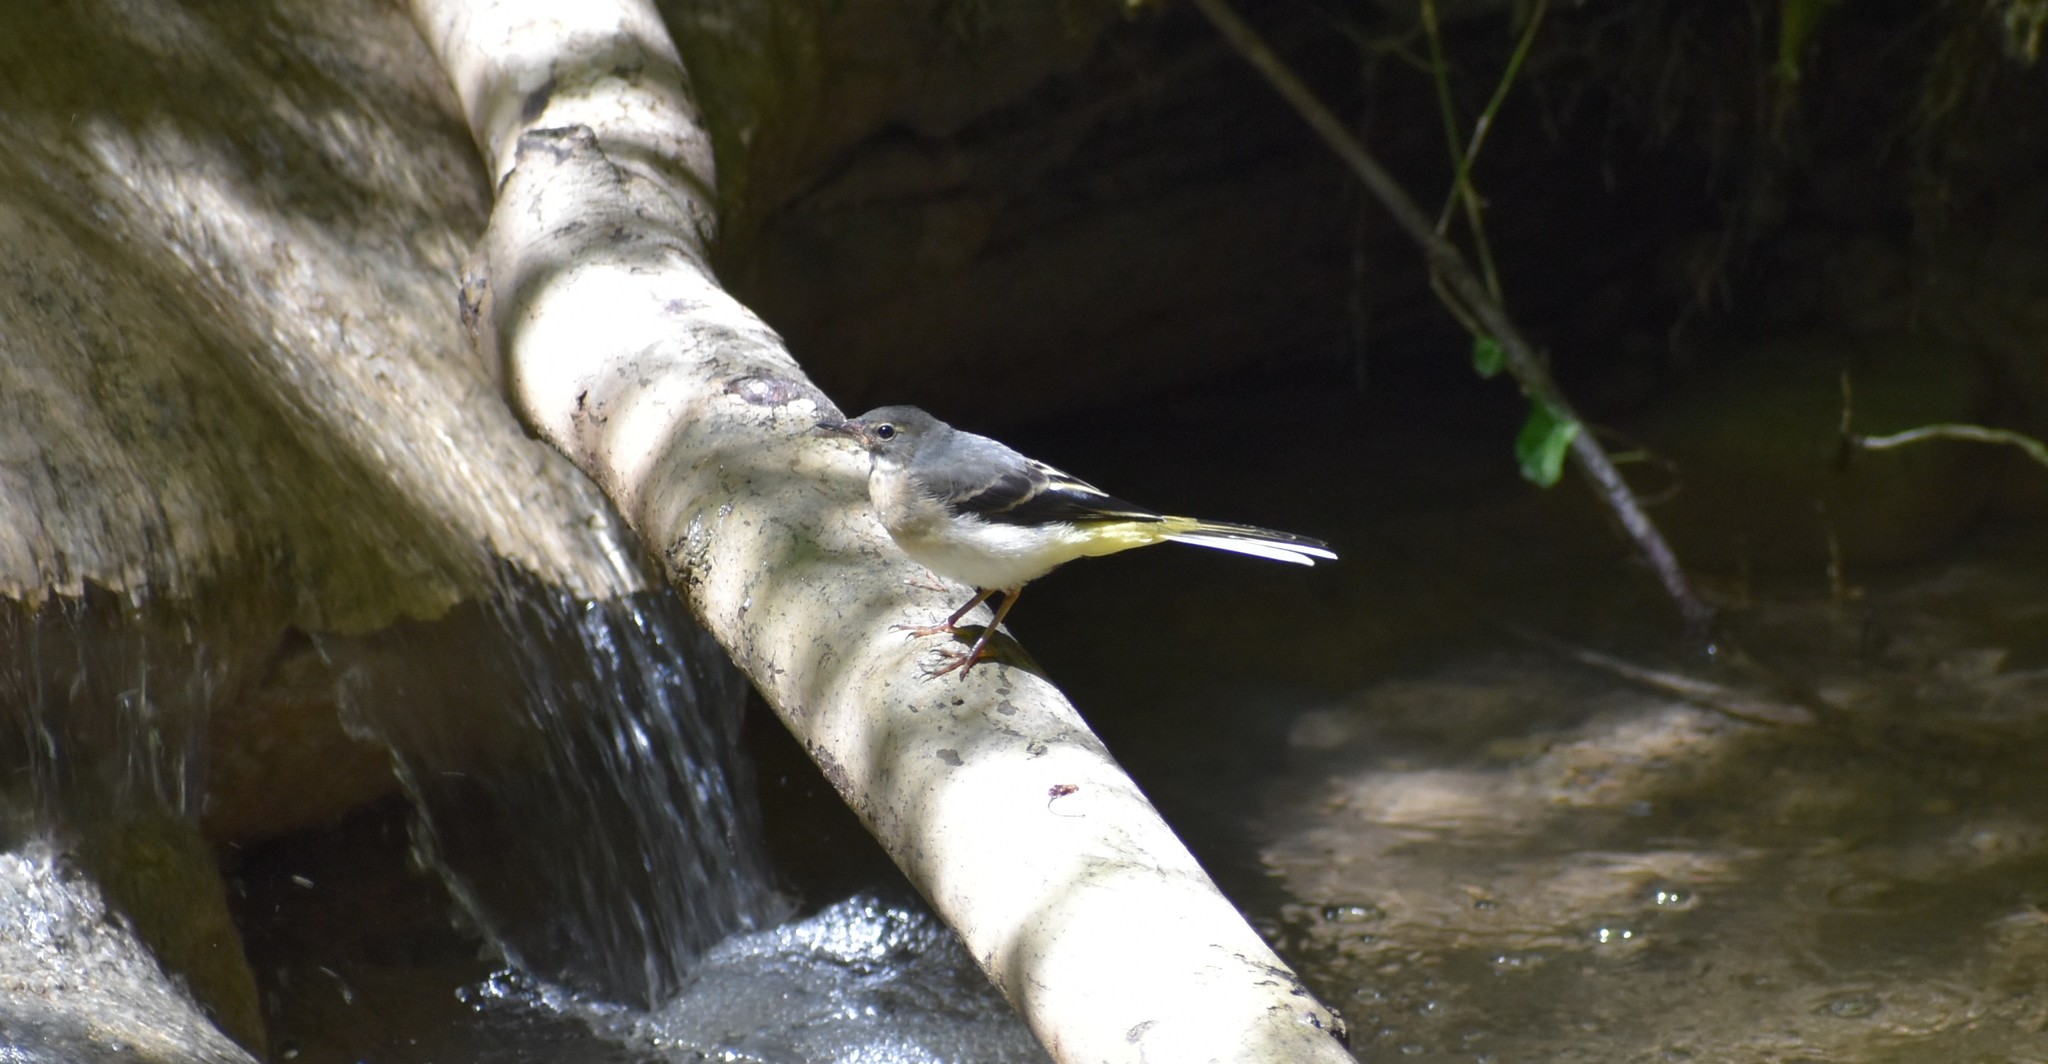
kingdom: Animalia
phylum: Chordata
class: Aves
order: Passeriformes
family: Motacillidae
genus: Motacilla
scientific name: Motacilla cinerea
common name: Grey wagtail
